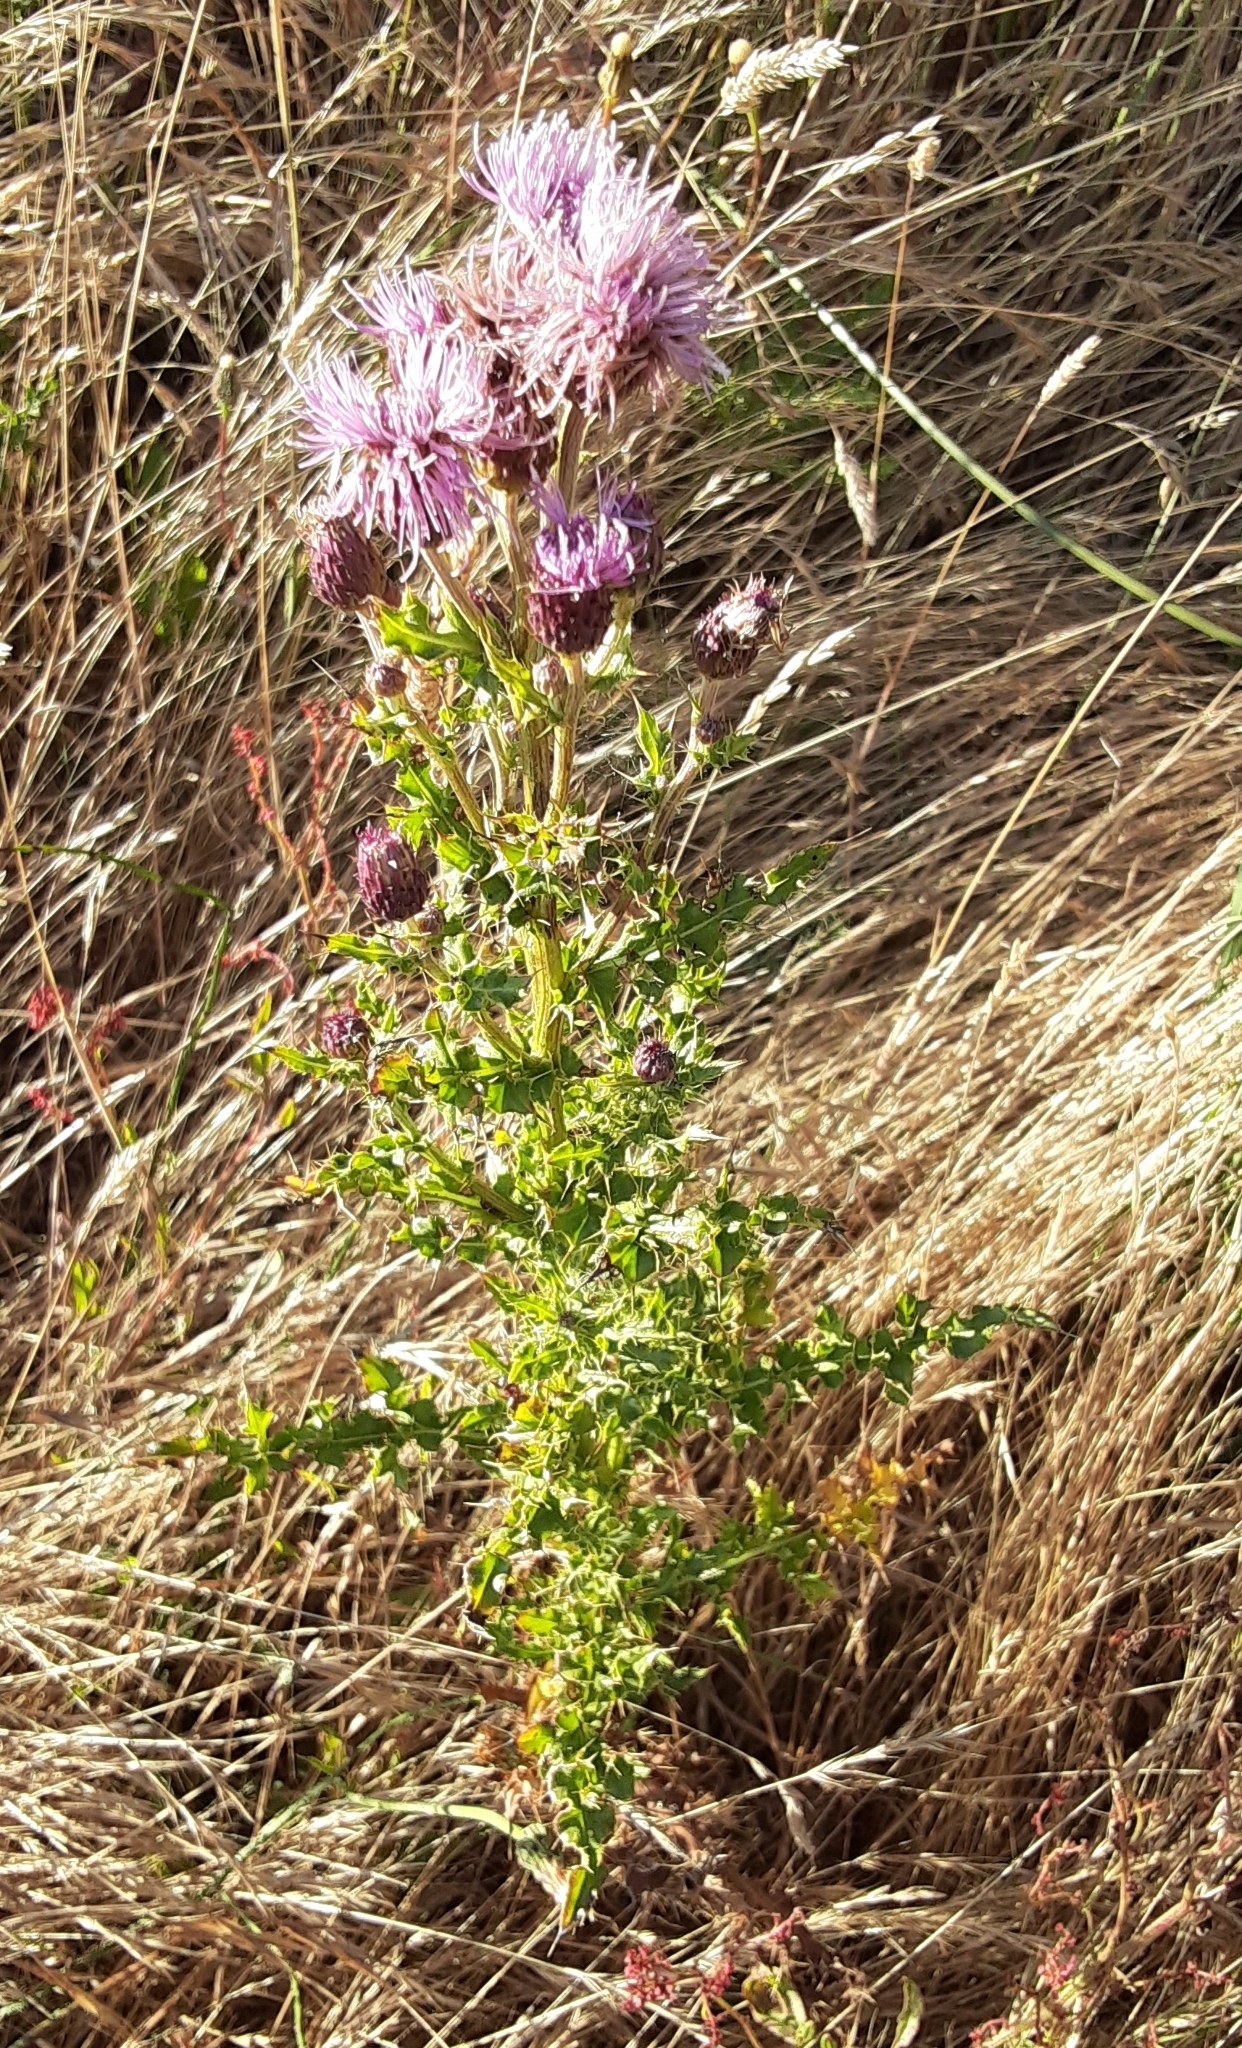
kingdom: Plantae
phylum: Tracheophyta
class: Magnoliopsida
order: Asterales
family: Asteraceae
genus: Cirsium
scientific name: Cirsium arvense
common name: Creeping thistle
